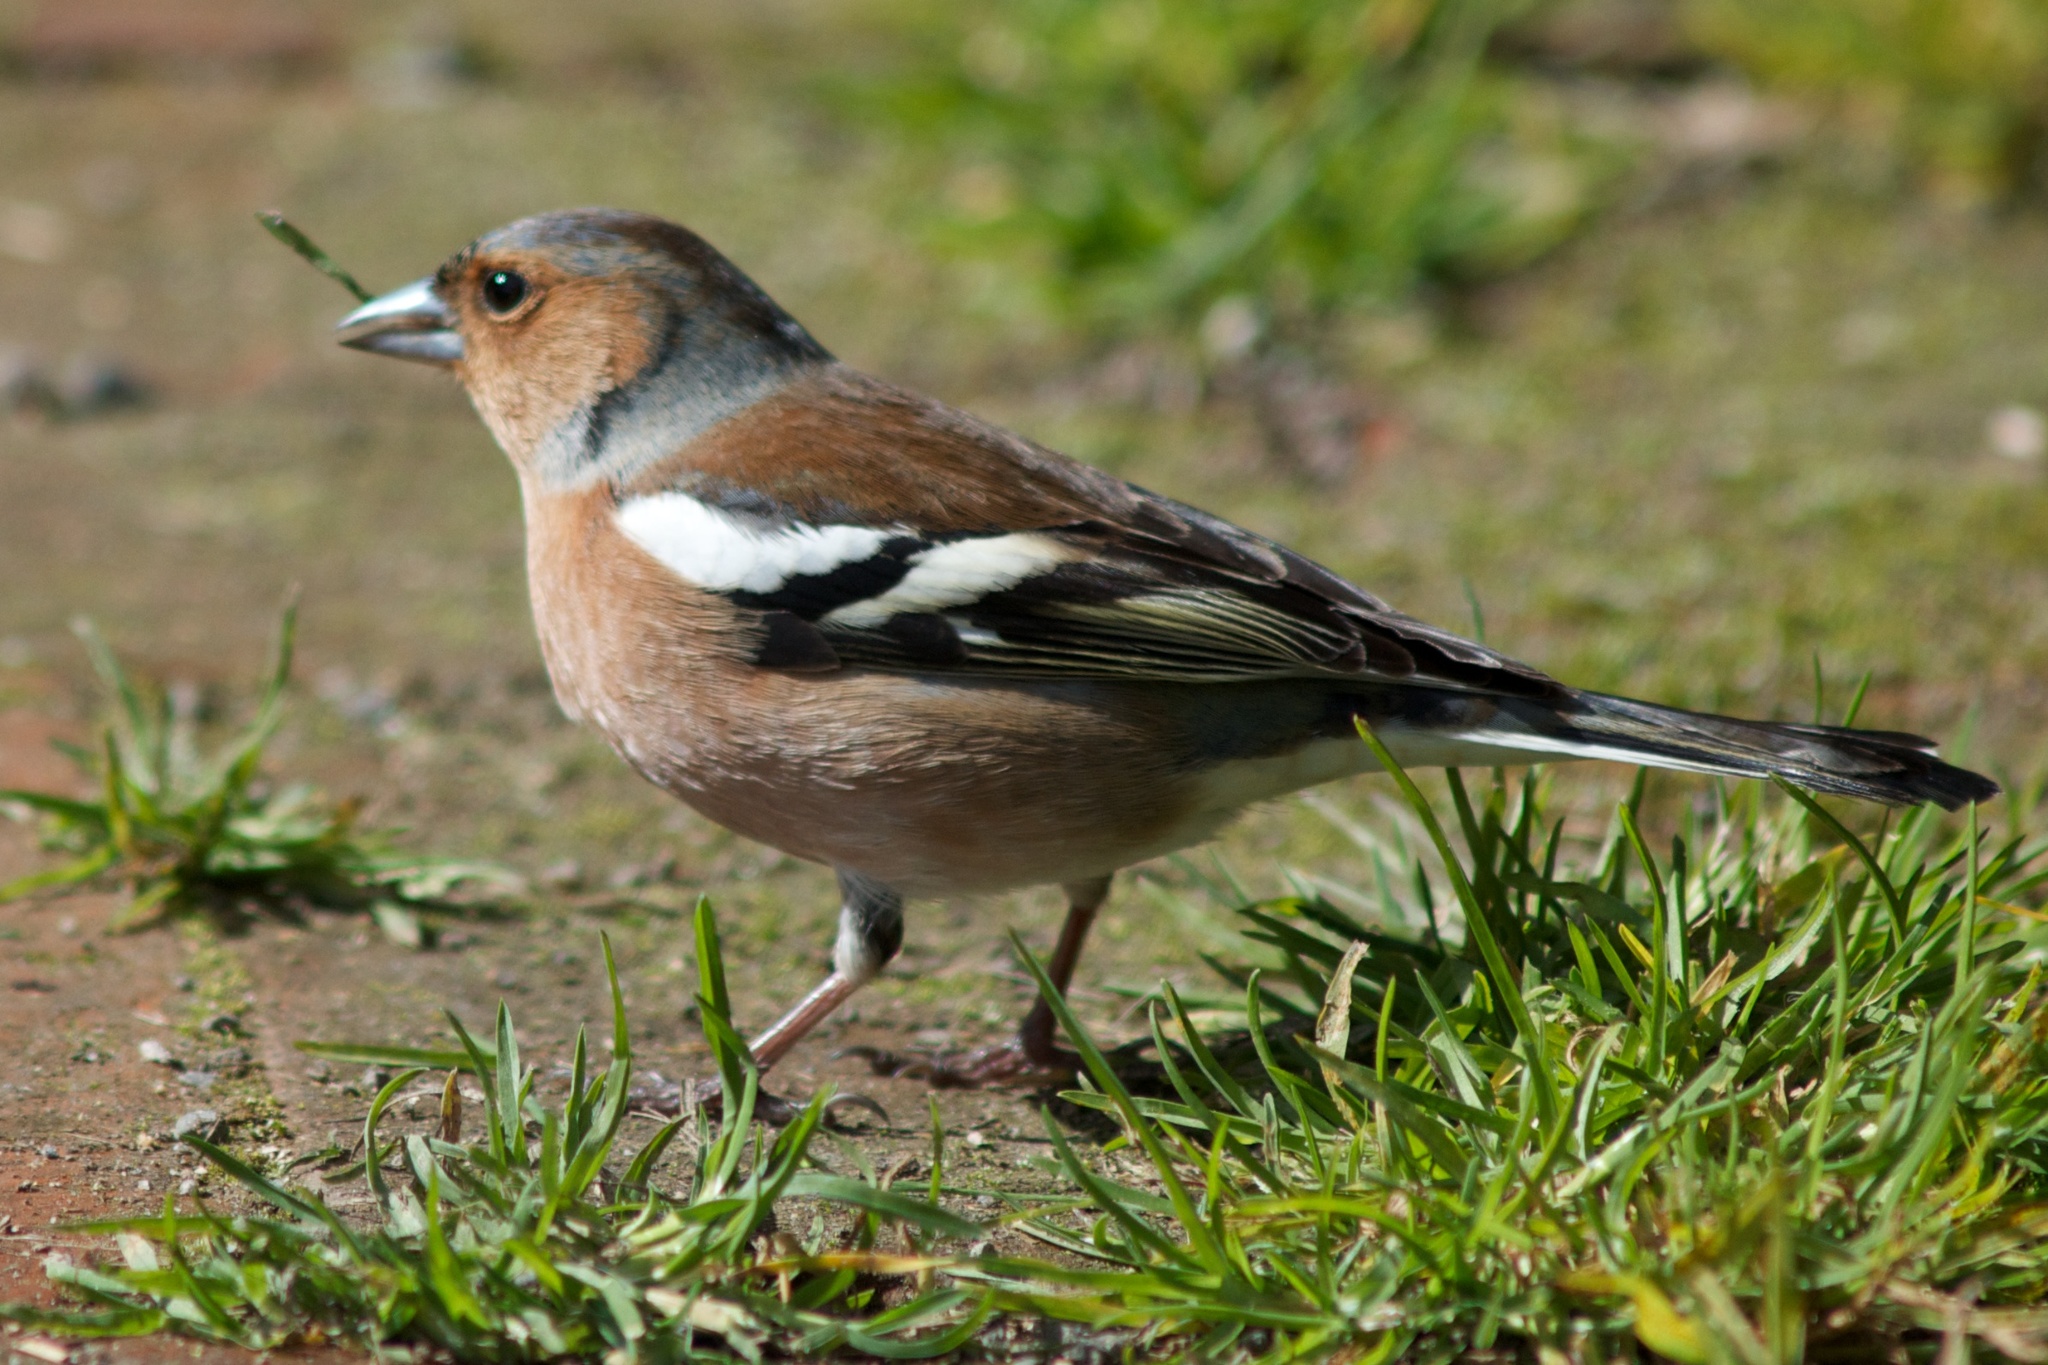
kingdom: Animalia
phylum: Chordata
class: Aves
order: Passeriformes
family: Fringillidae
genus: Fringilla
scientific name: Fringilla coelebs
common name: Common chaffinch
